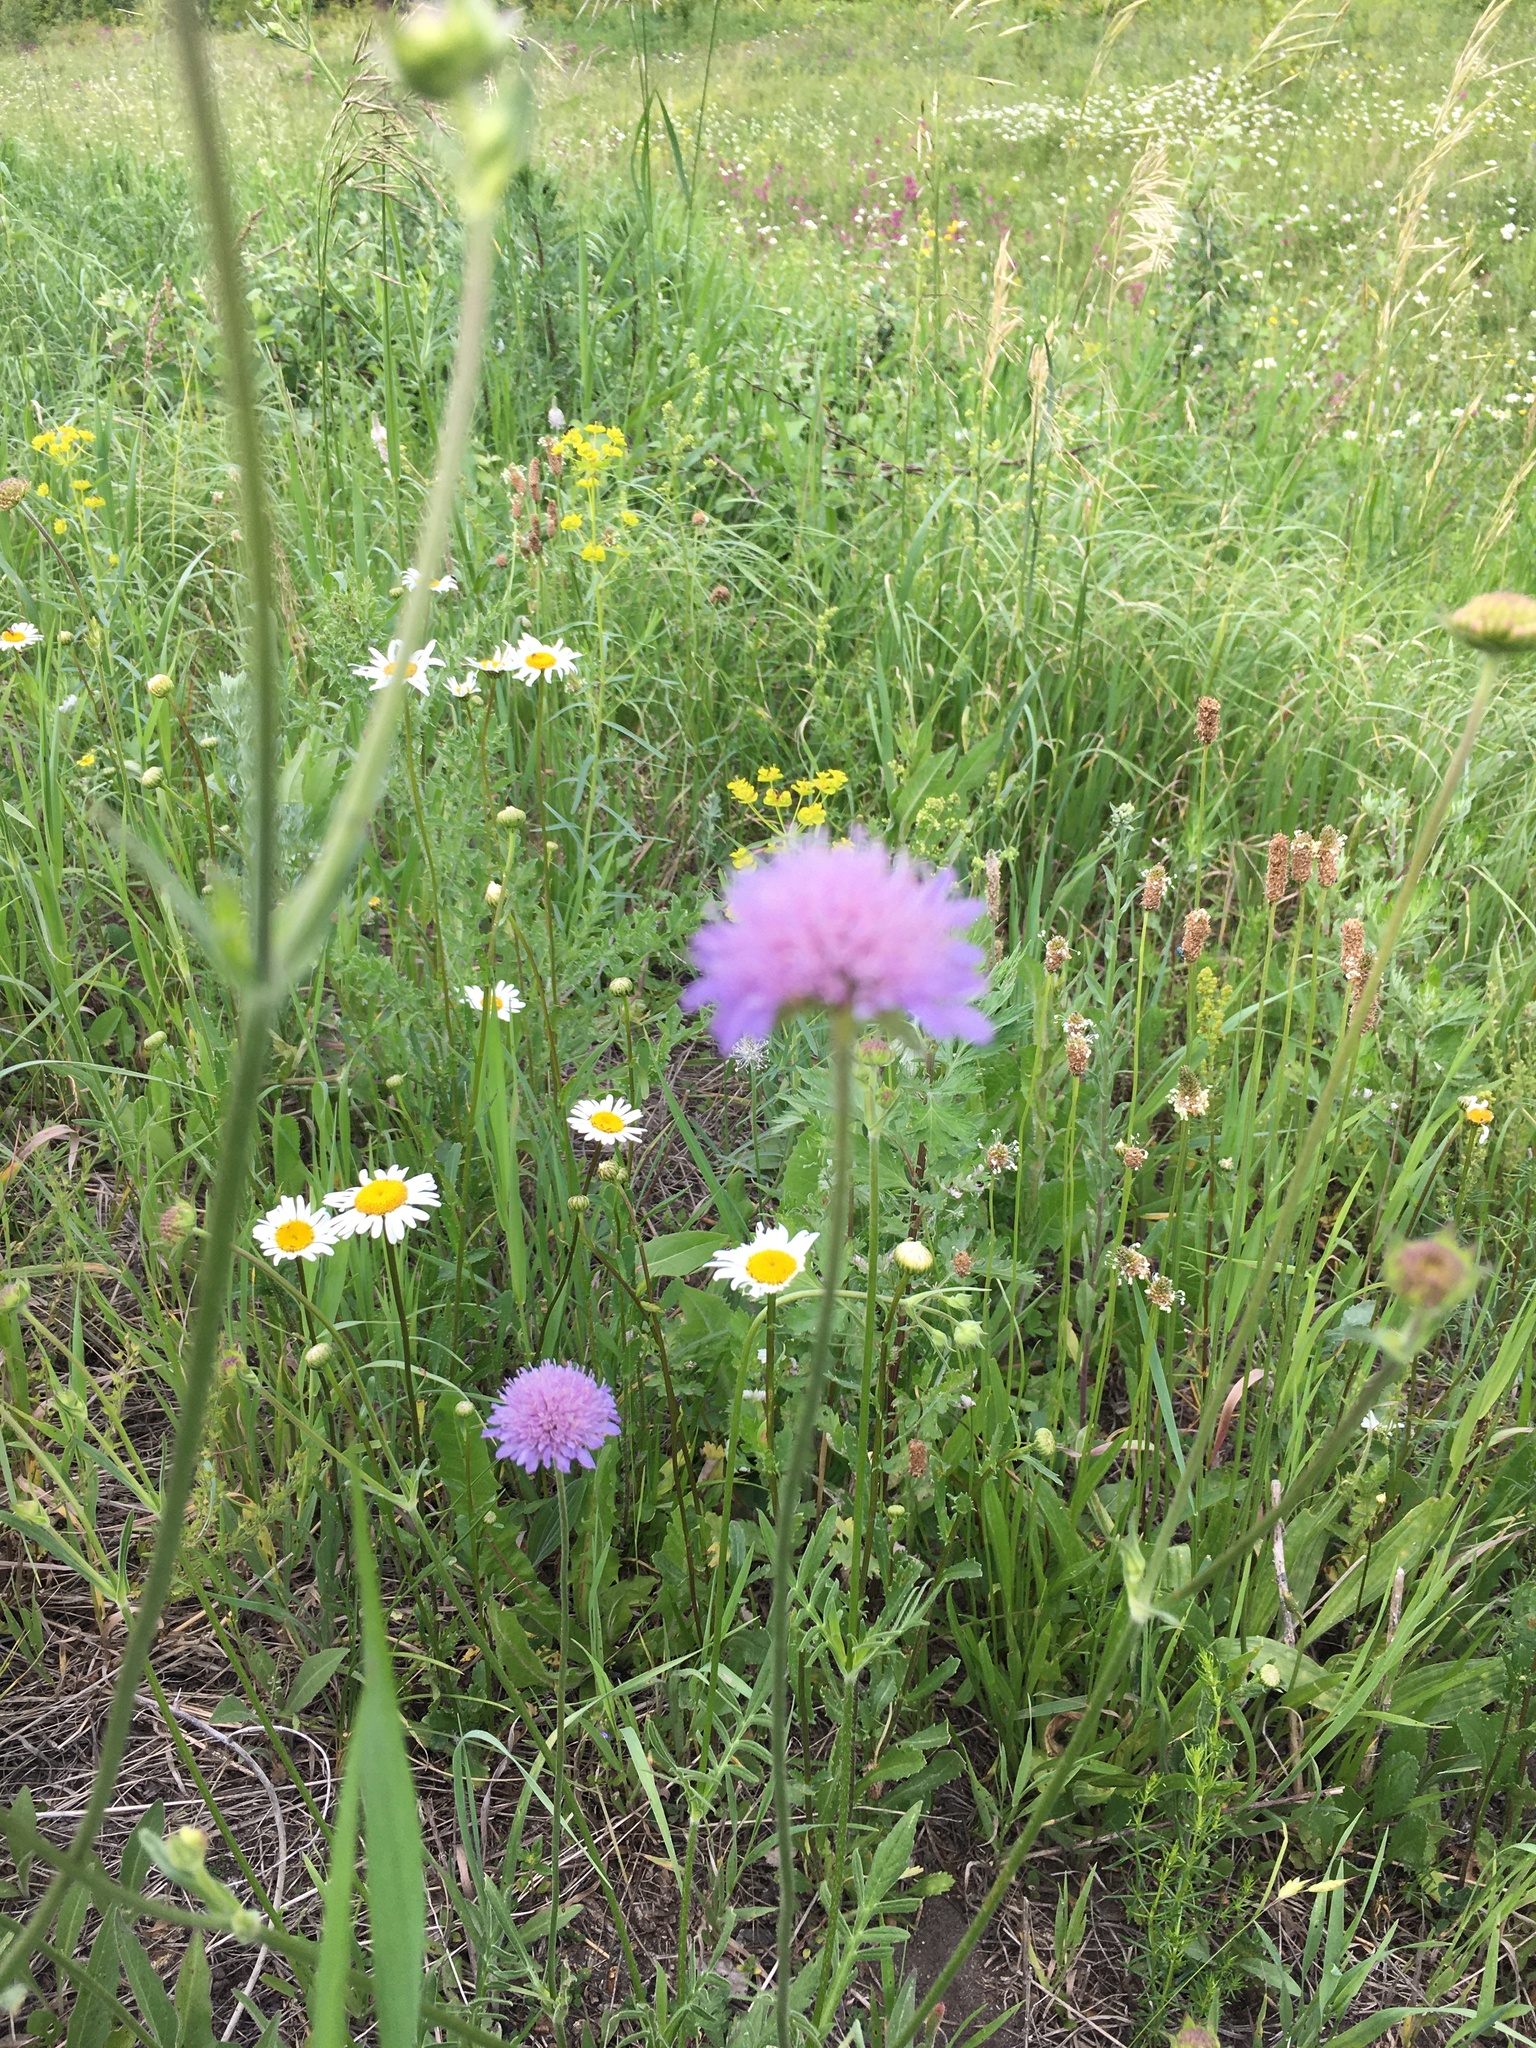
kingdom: Plantae
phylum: Tracheophyta
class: Magnoliopsida
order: Dipsacales
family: Caprifoliaceae
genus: Knautia
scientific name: Knautia arvensis
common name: Field scabiosa
